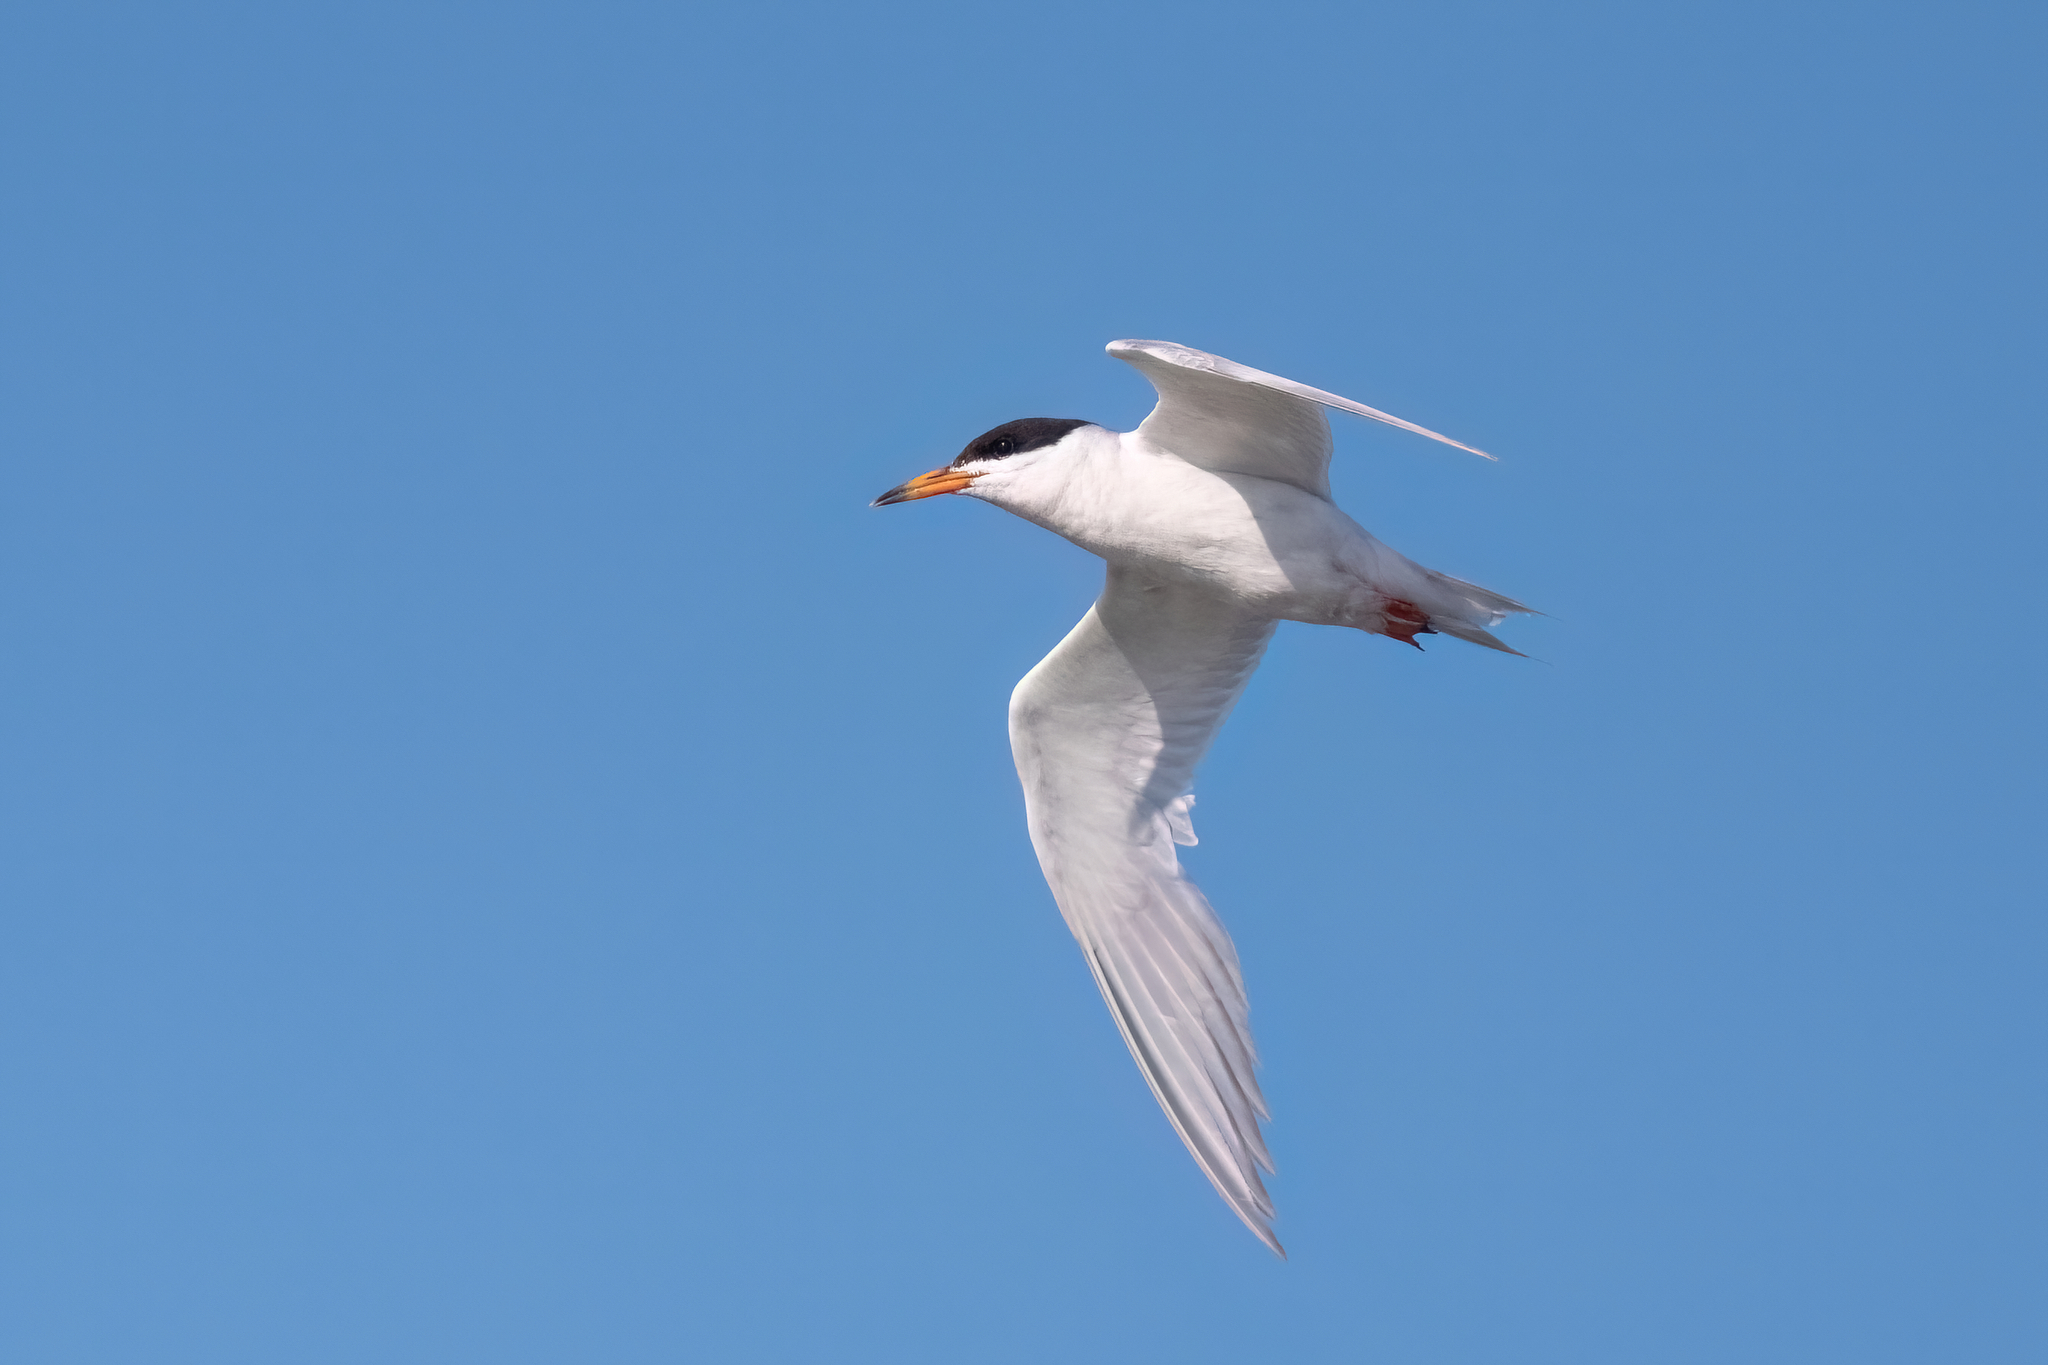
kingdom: Animalia
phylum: Chordata
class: Aves
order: Charadriiformes
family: Laridae
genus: Sterna
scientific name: Sterna forsteri
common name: Forster's tern
